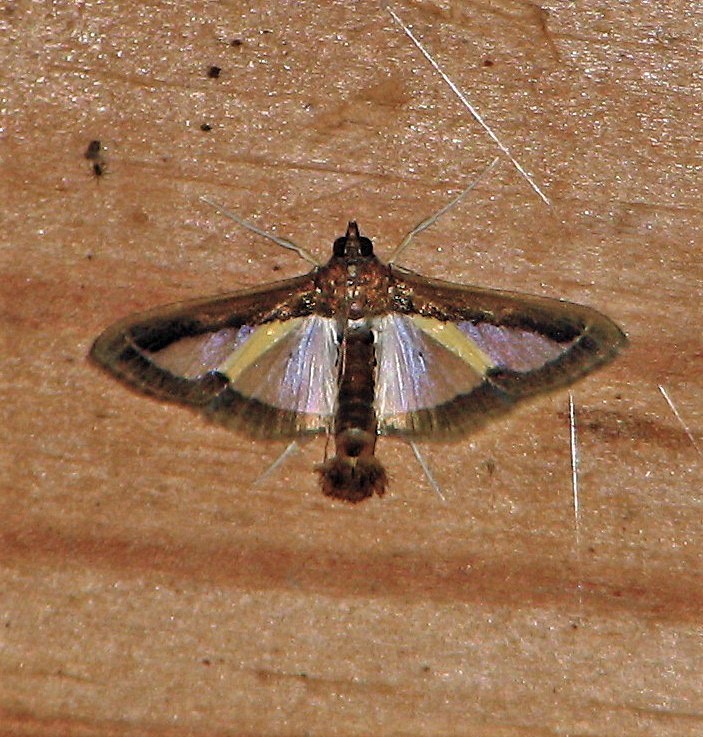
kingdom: Animalia
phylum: Arthropoda
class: Insecta
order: Lepidoptera
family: Crambidae
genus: Diaphania
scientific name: Diaphania elegans
